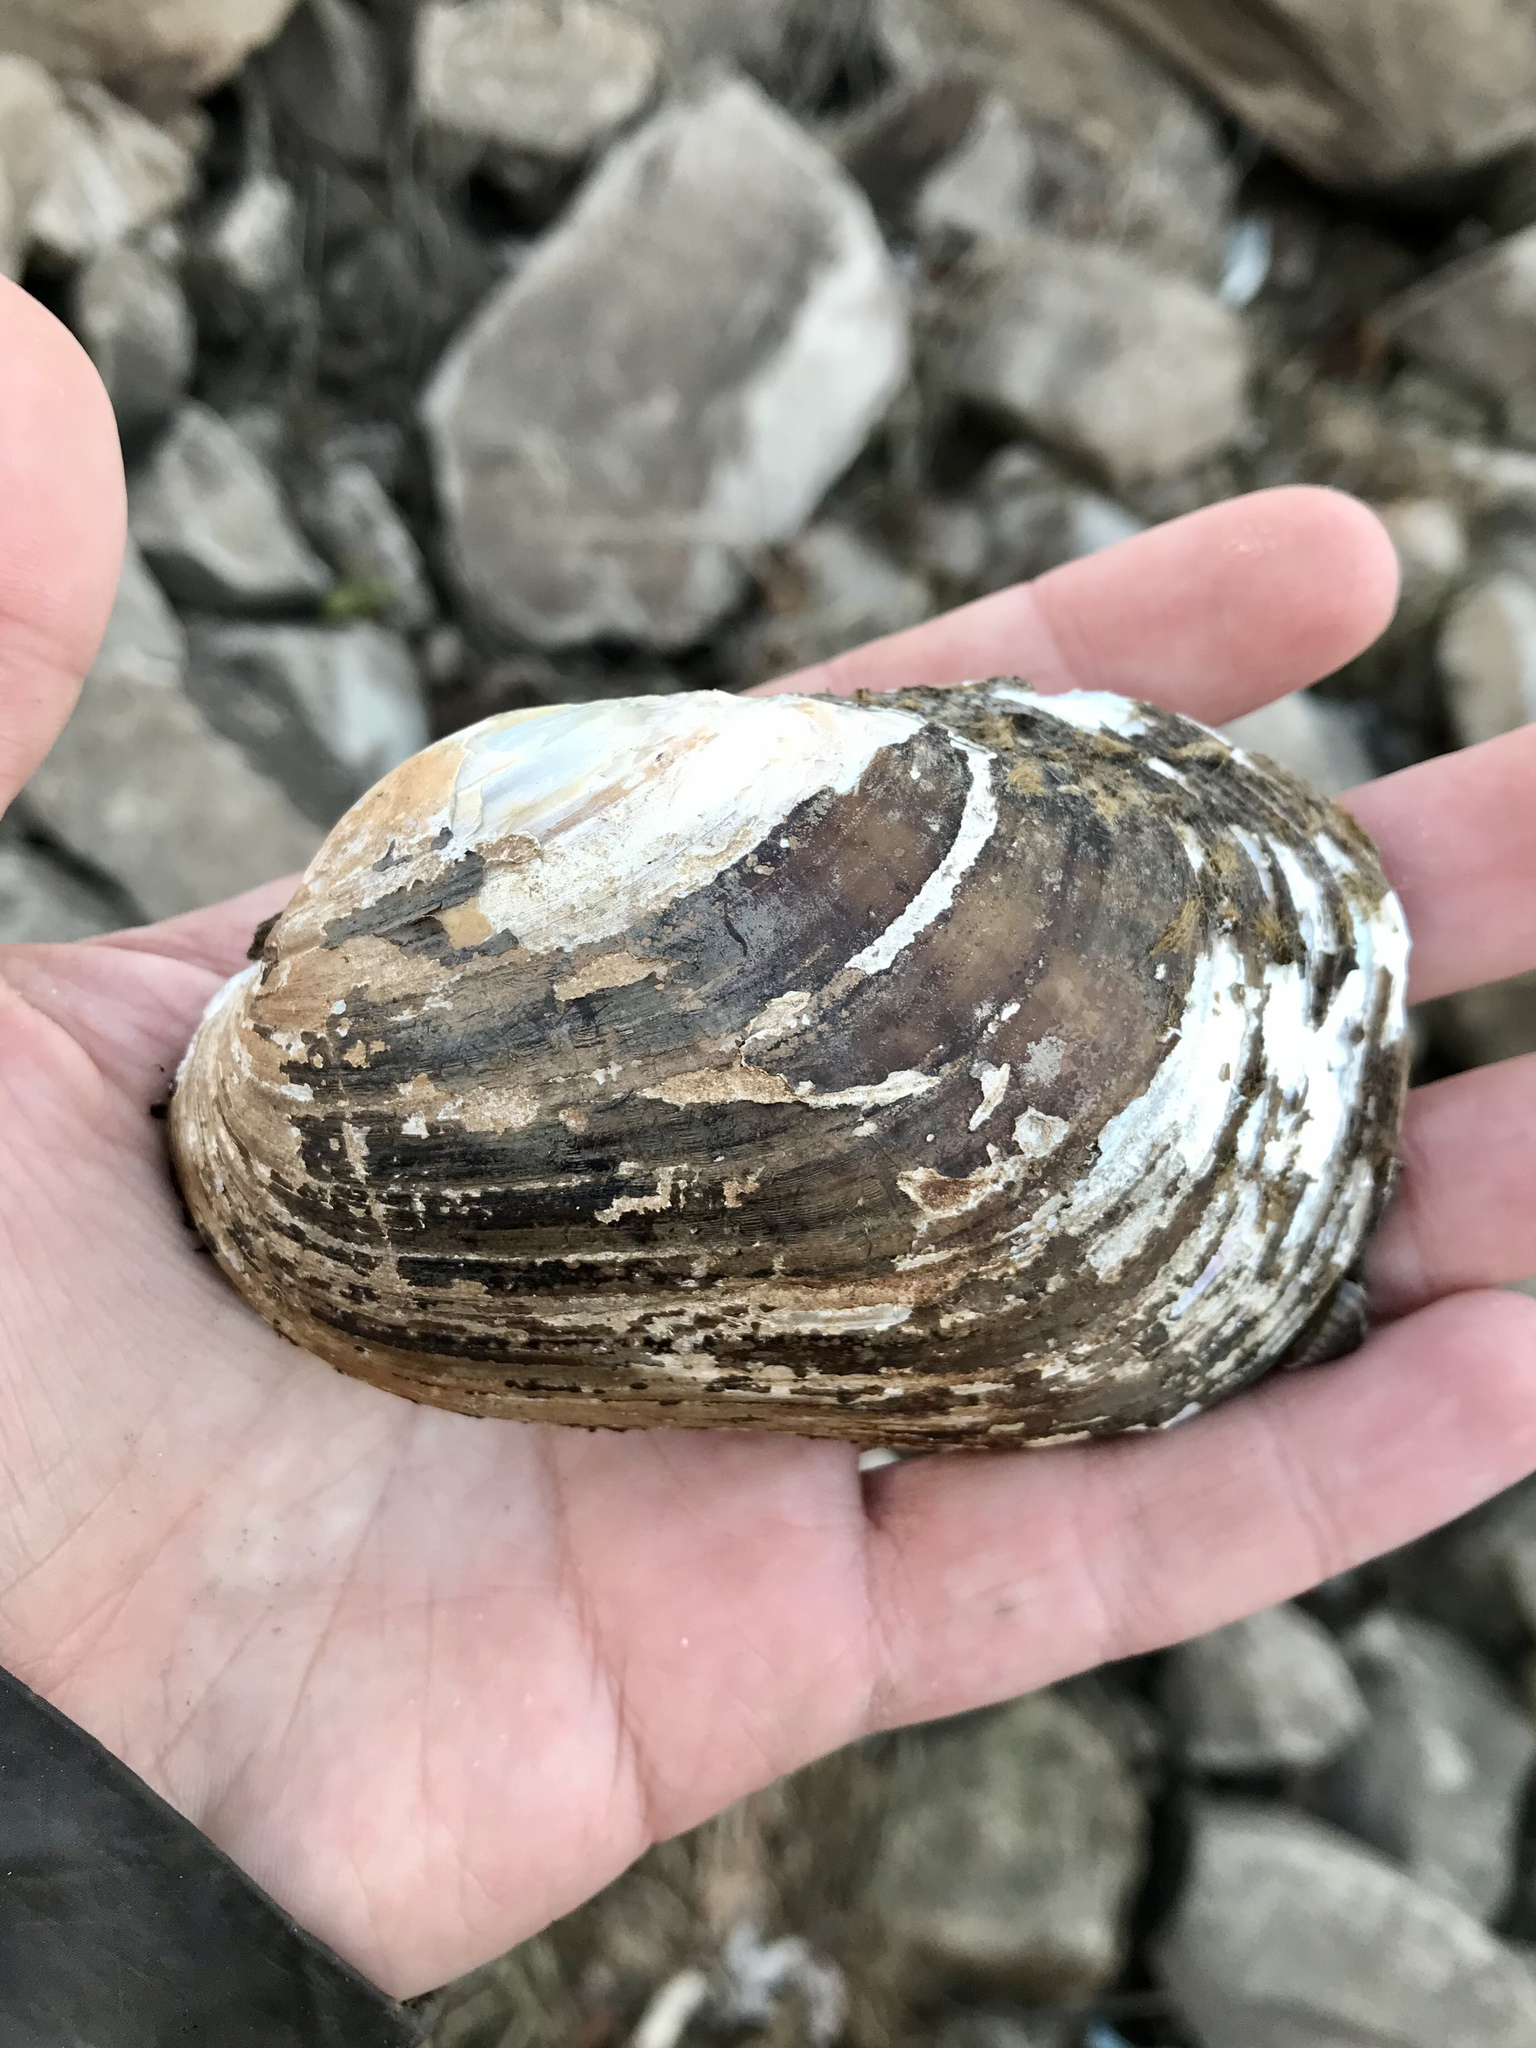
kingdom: Animalia
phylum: Mollusca
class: Bivalvia
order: Unionida
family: Unionidae
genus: Lampsilis
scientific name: Lampsilis siliquoidea
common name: Fatmucket
